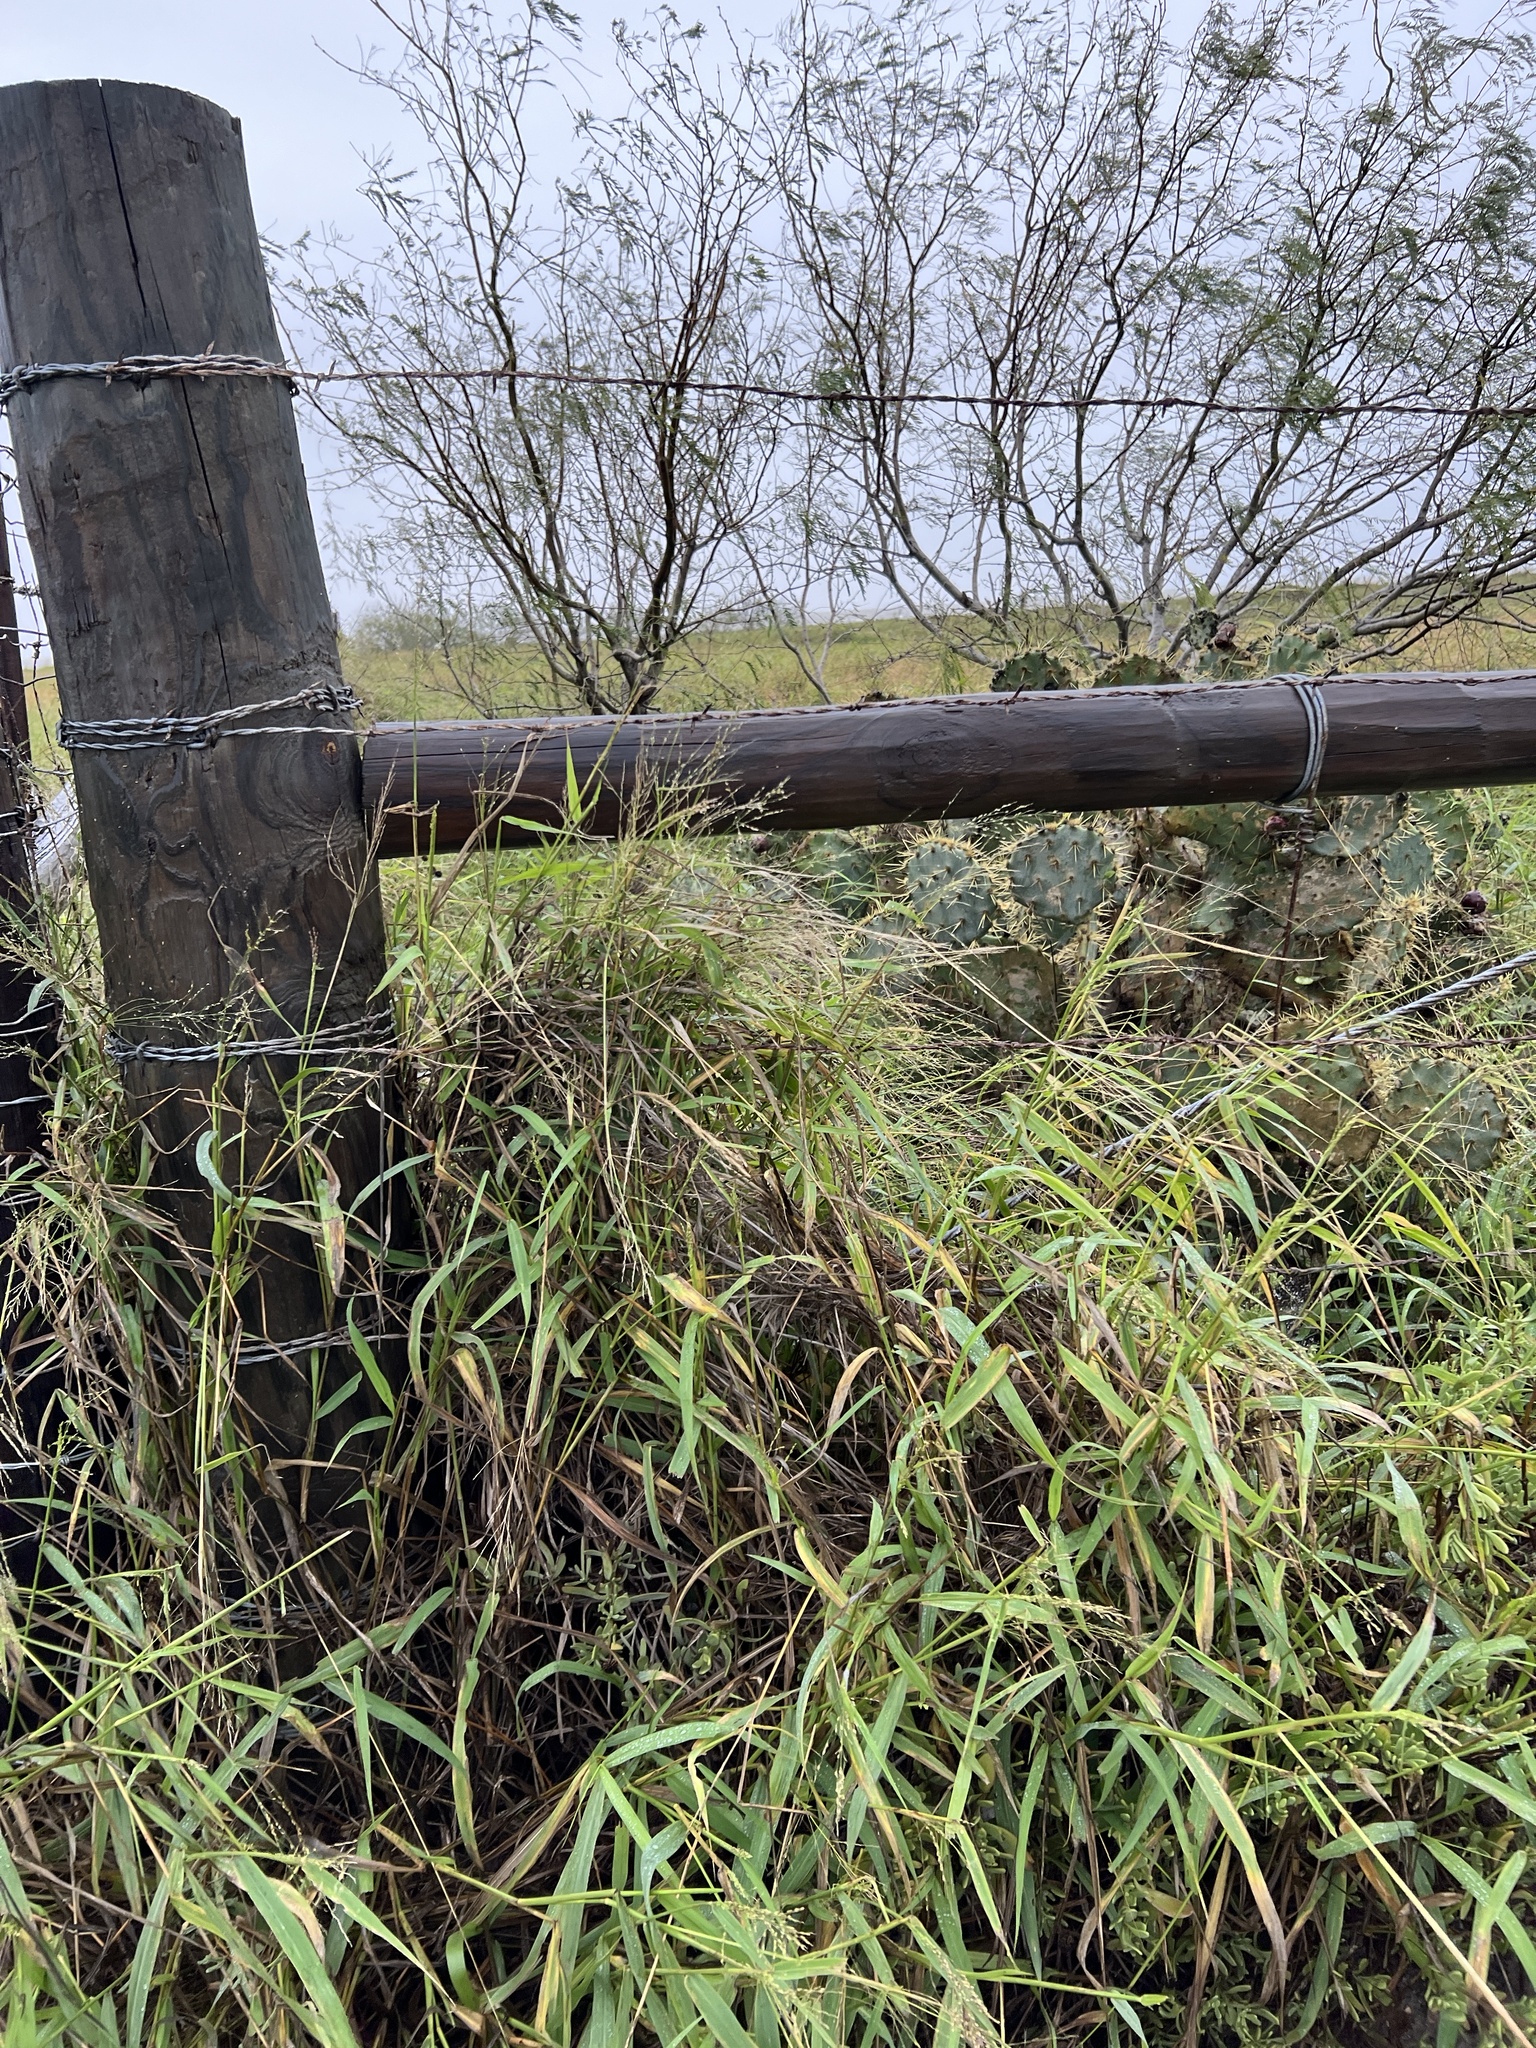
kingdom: Plantae
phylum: Tracheophyta
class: Liliopsida
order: Poales
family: Poaceae
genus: Megathyrsus
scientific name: Megathyrsus maximus
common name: Guineagrass
